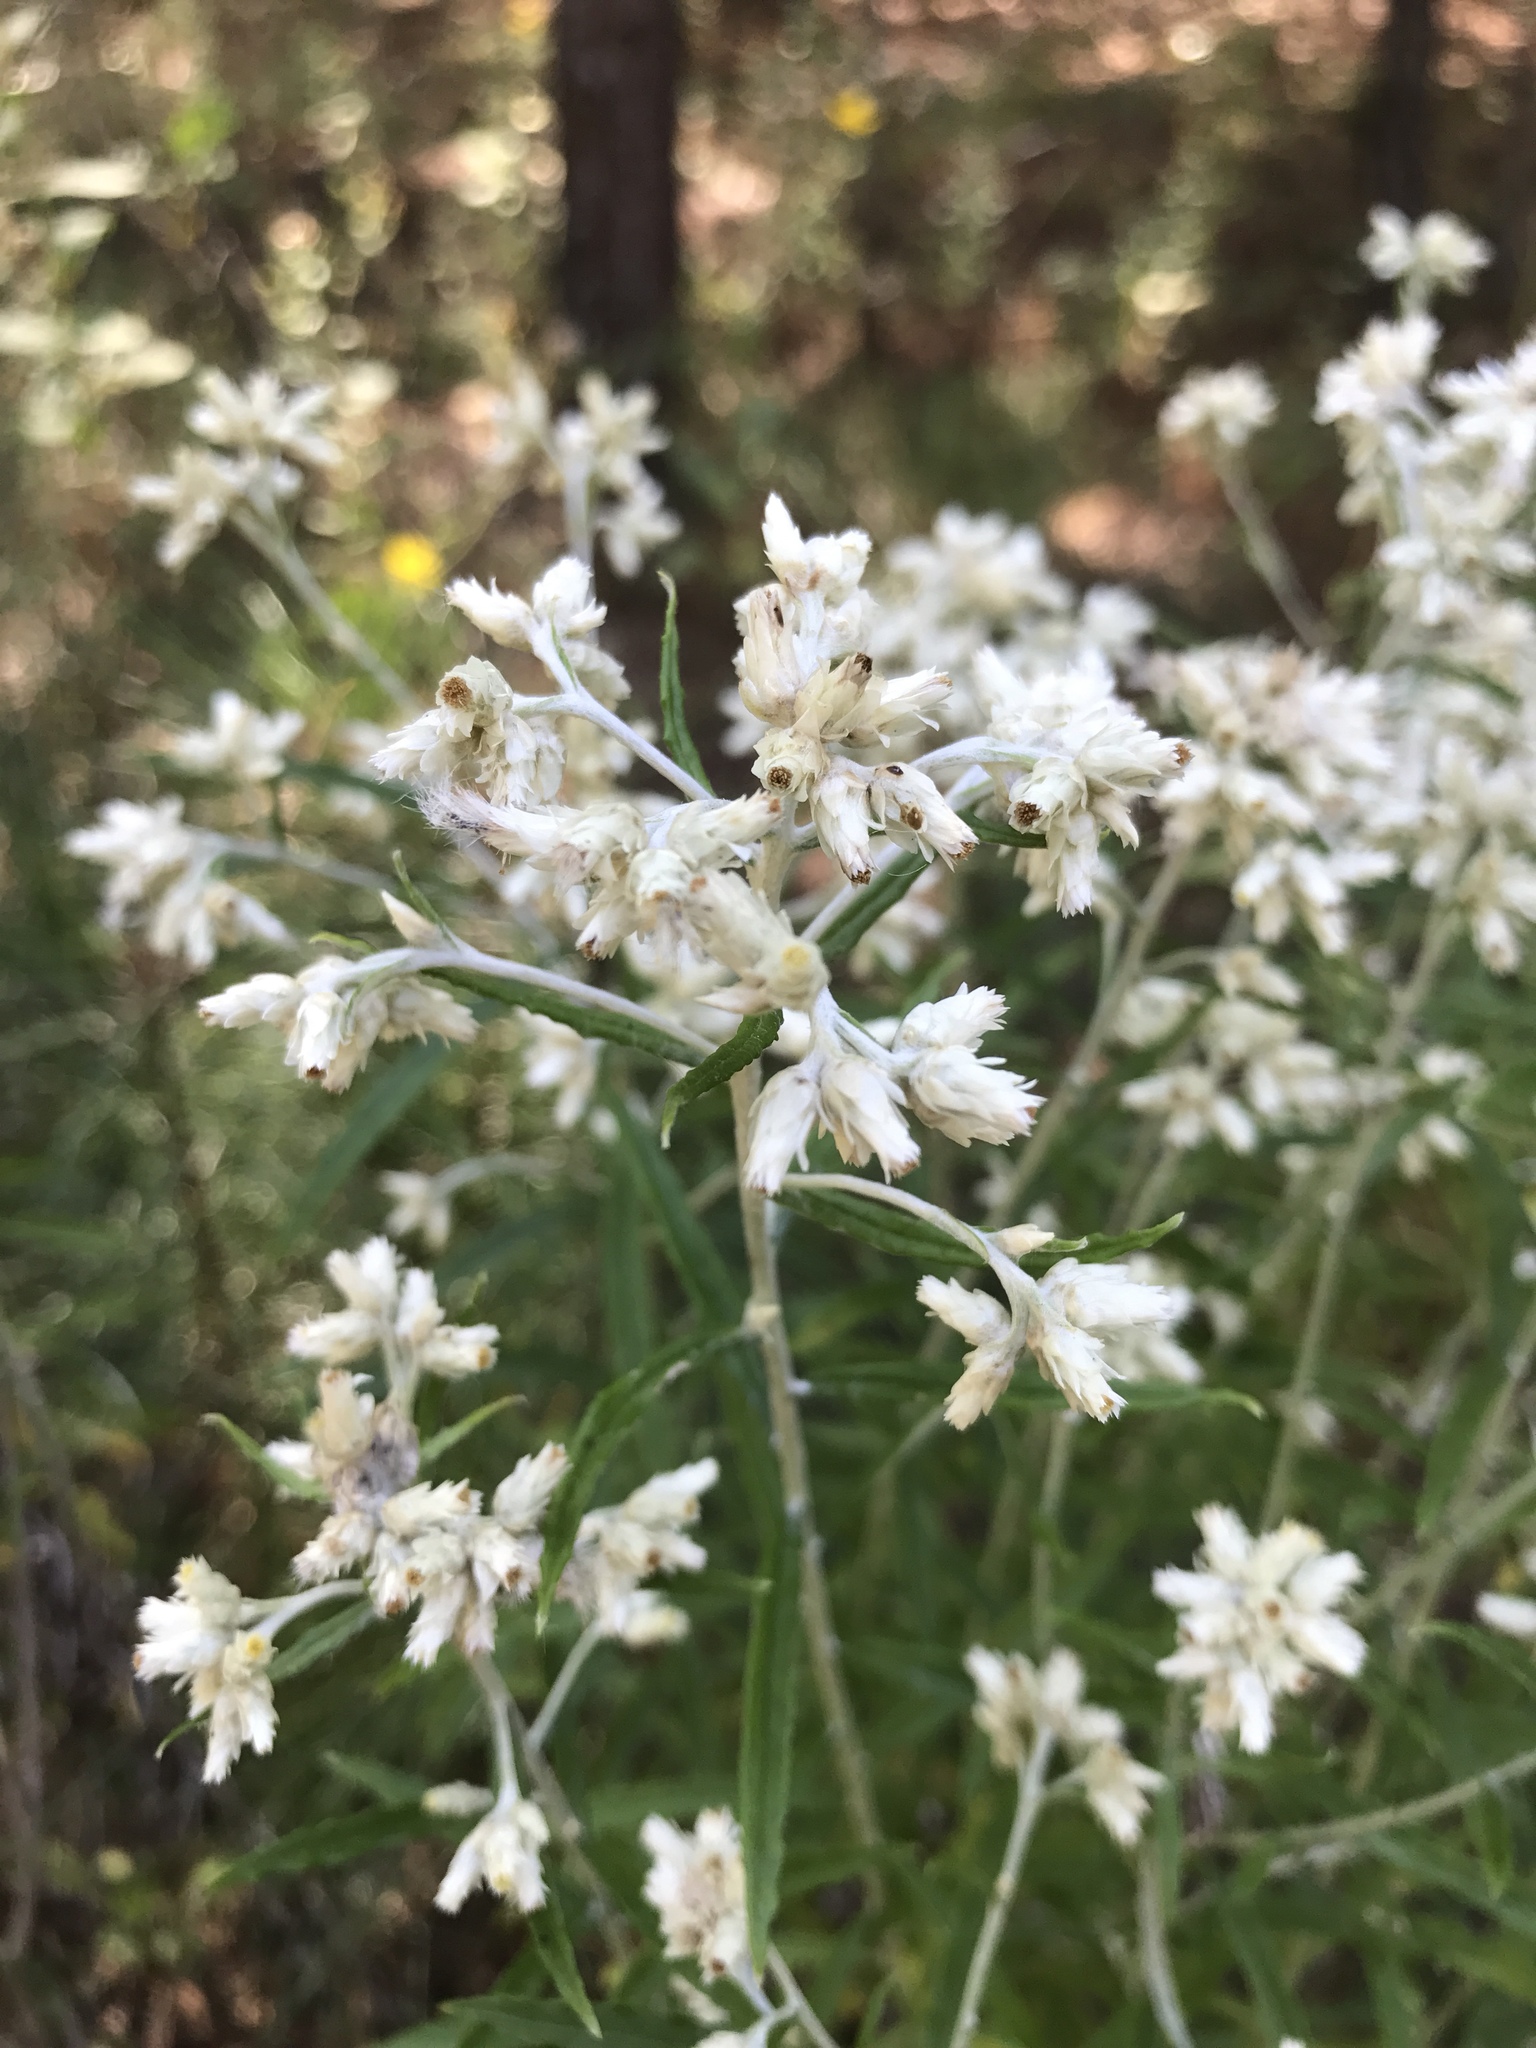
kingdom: Plantae
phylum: Tracheophyta
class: Magnoliopsida
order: Asterales
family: Asteraceae
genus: Pseudognaphalium
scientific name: Pseudognaphalium obtusifolium
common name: Eastern rabbit-tobacco
